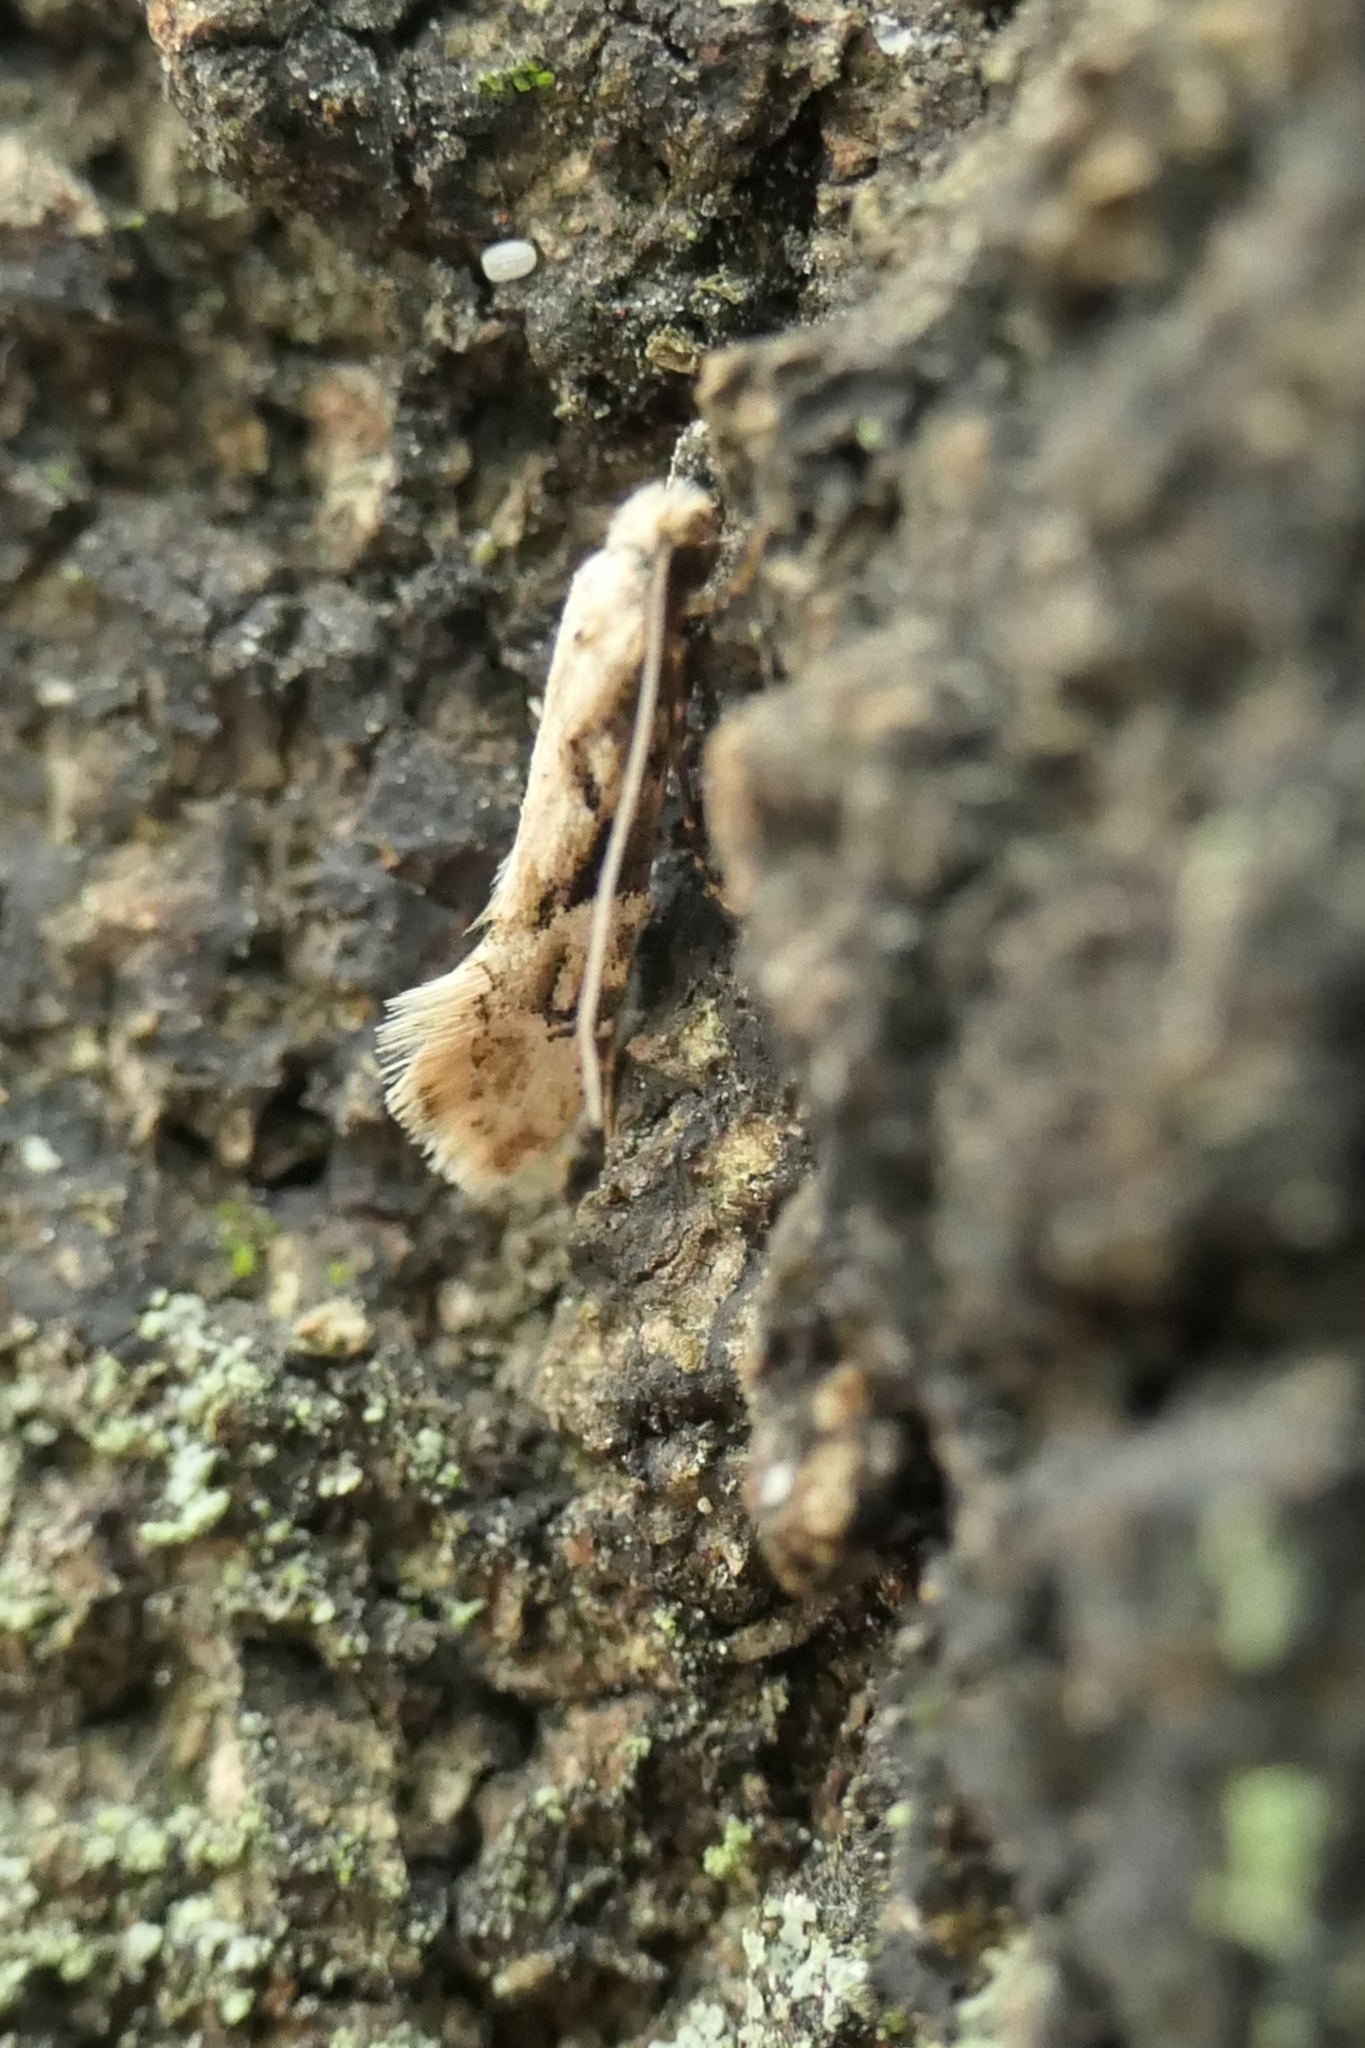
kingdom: Animalia
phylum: Arthropoda
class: Insecta
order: Lepidoptera
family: Tineidae
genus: Crypsitricha
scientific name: Crypsitricha mesotypa
